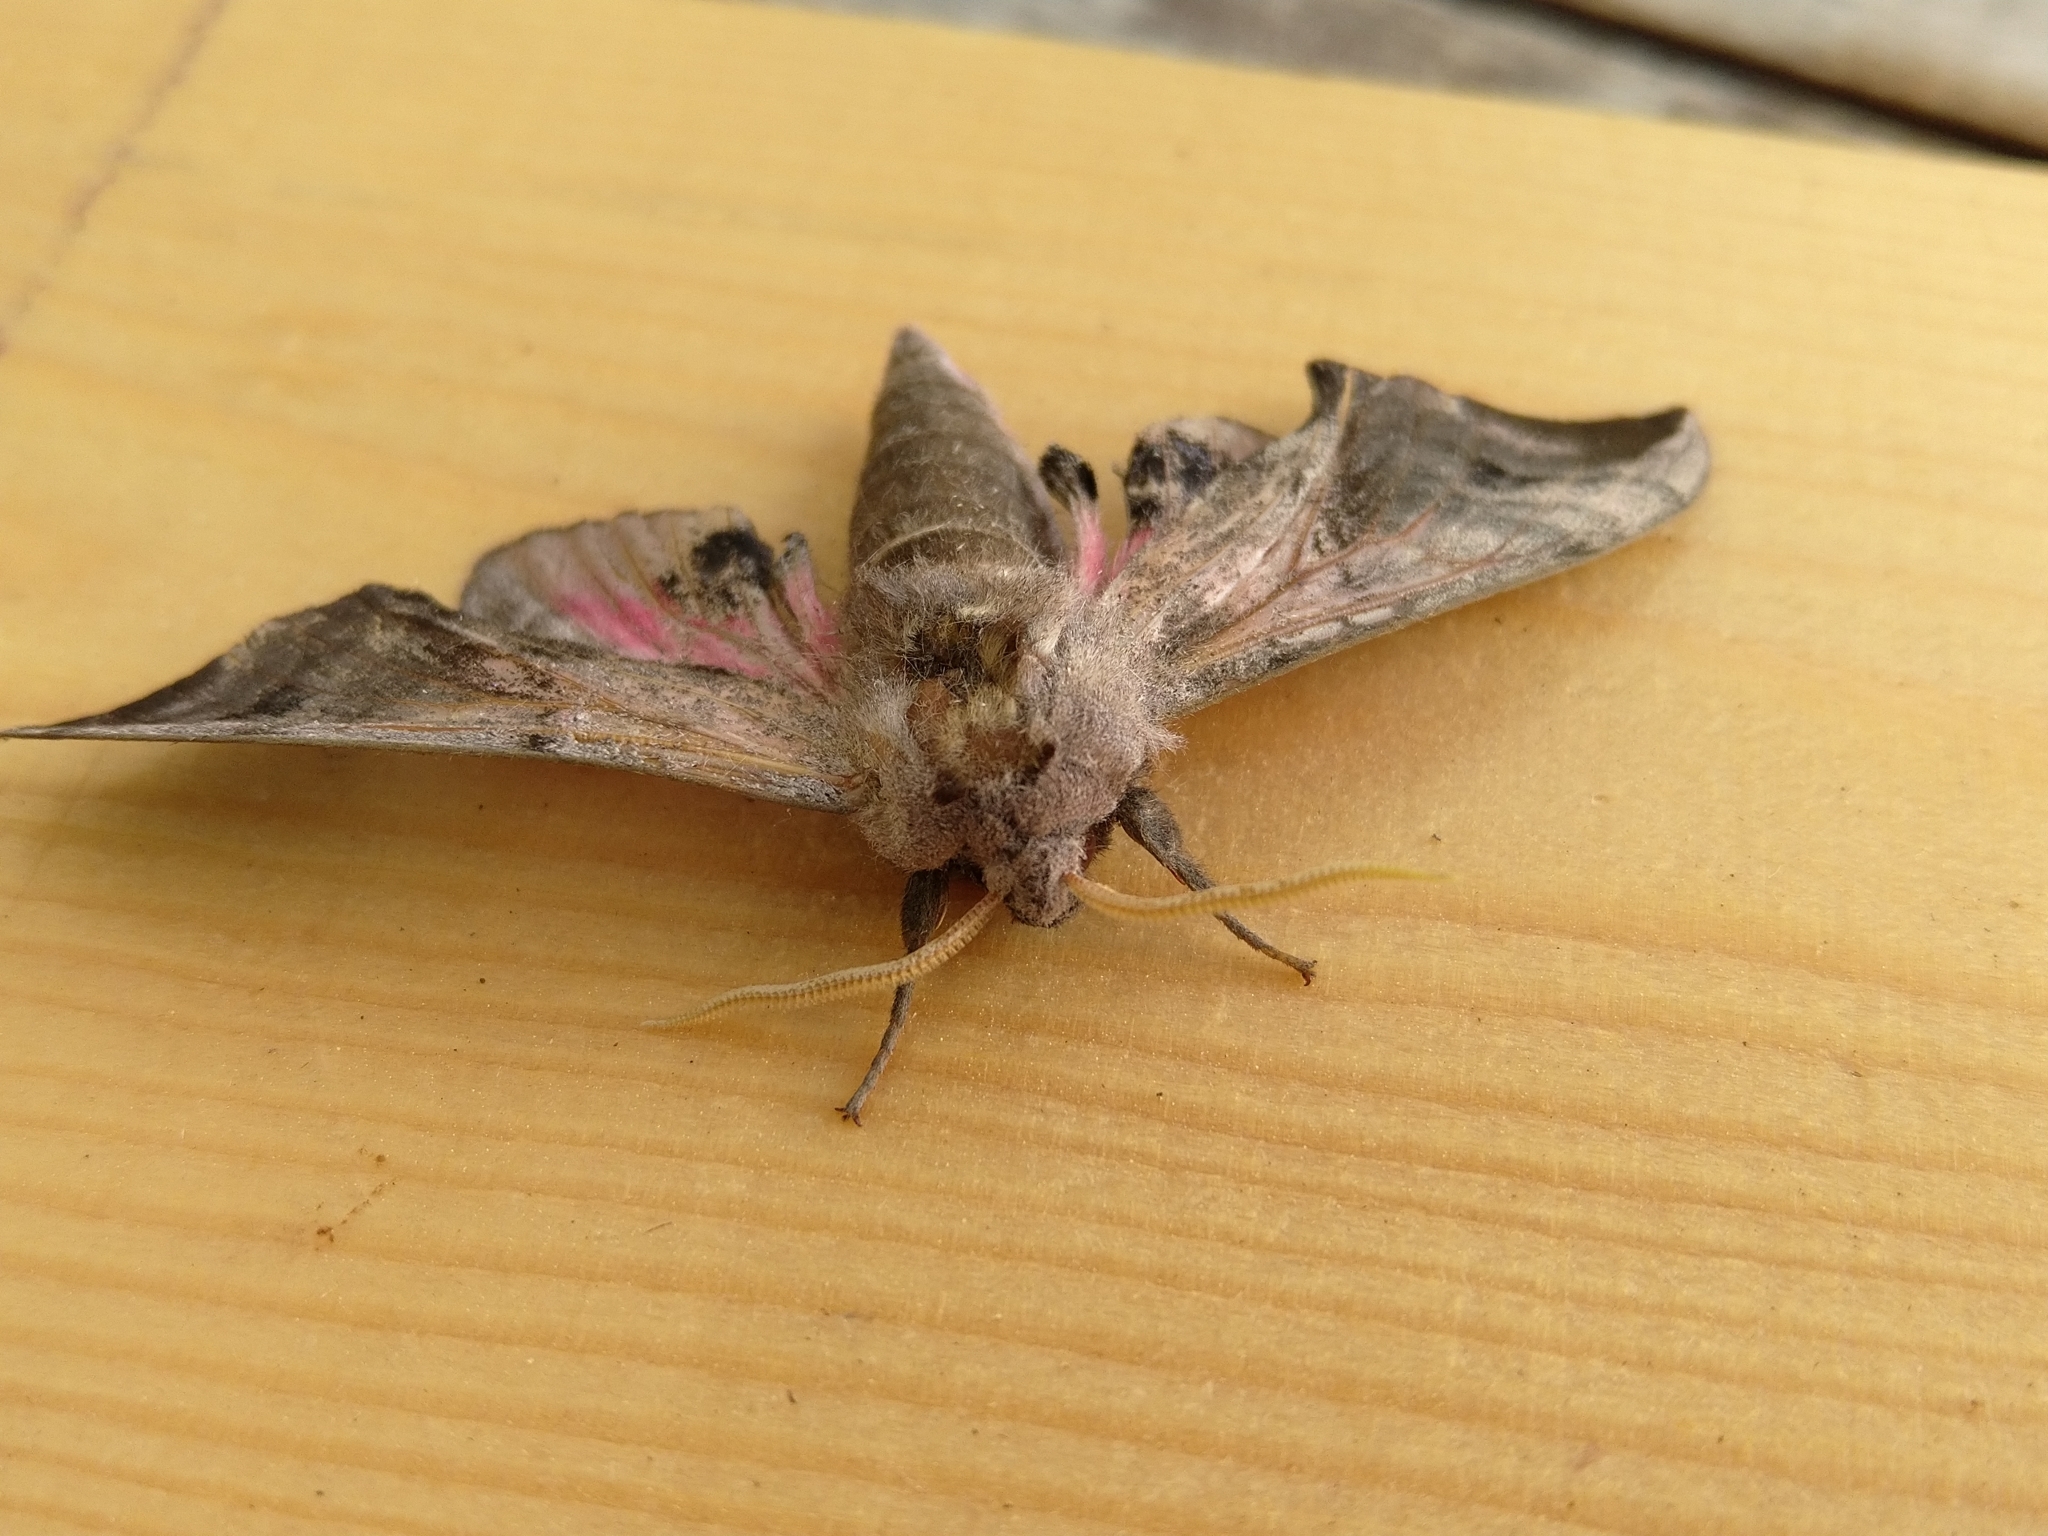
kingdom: Animalia
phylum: Arthropoda
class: Insecta
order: Lepidoptera
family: Sphingidae
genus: Smerinthus
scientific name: Smerinthus ocellata
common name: Eyed hawk-moth
